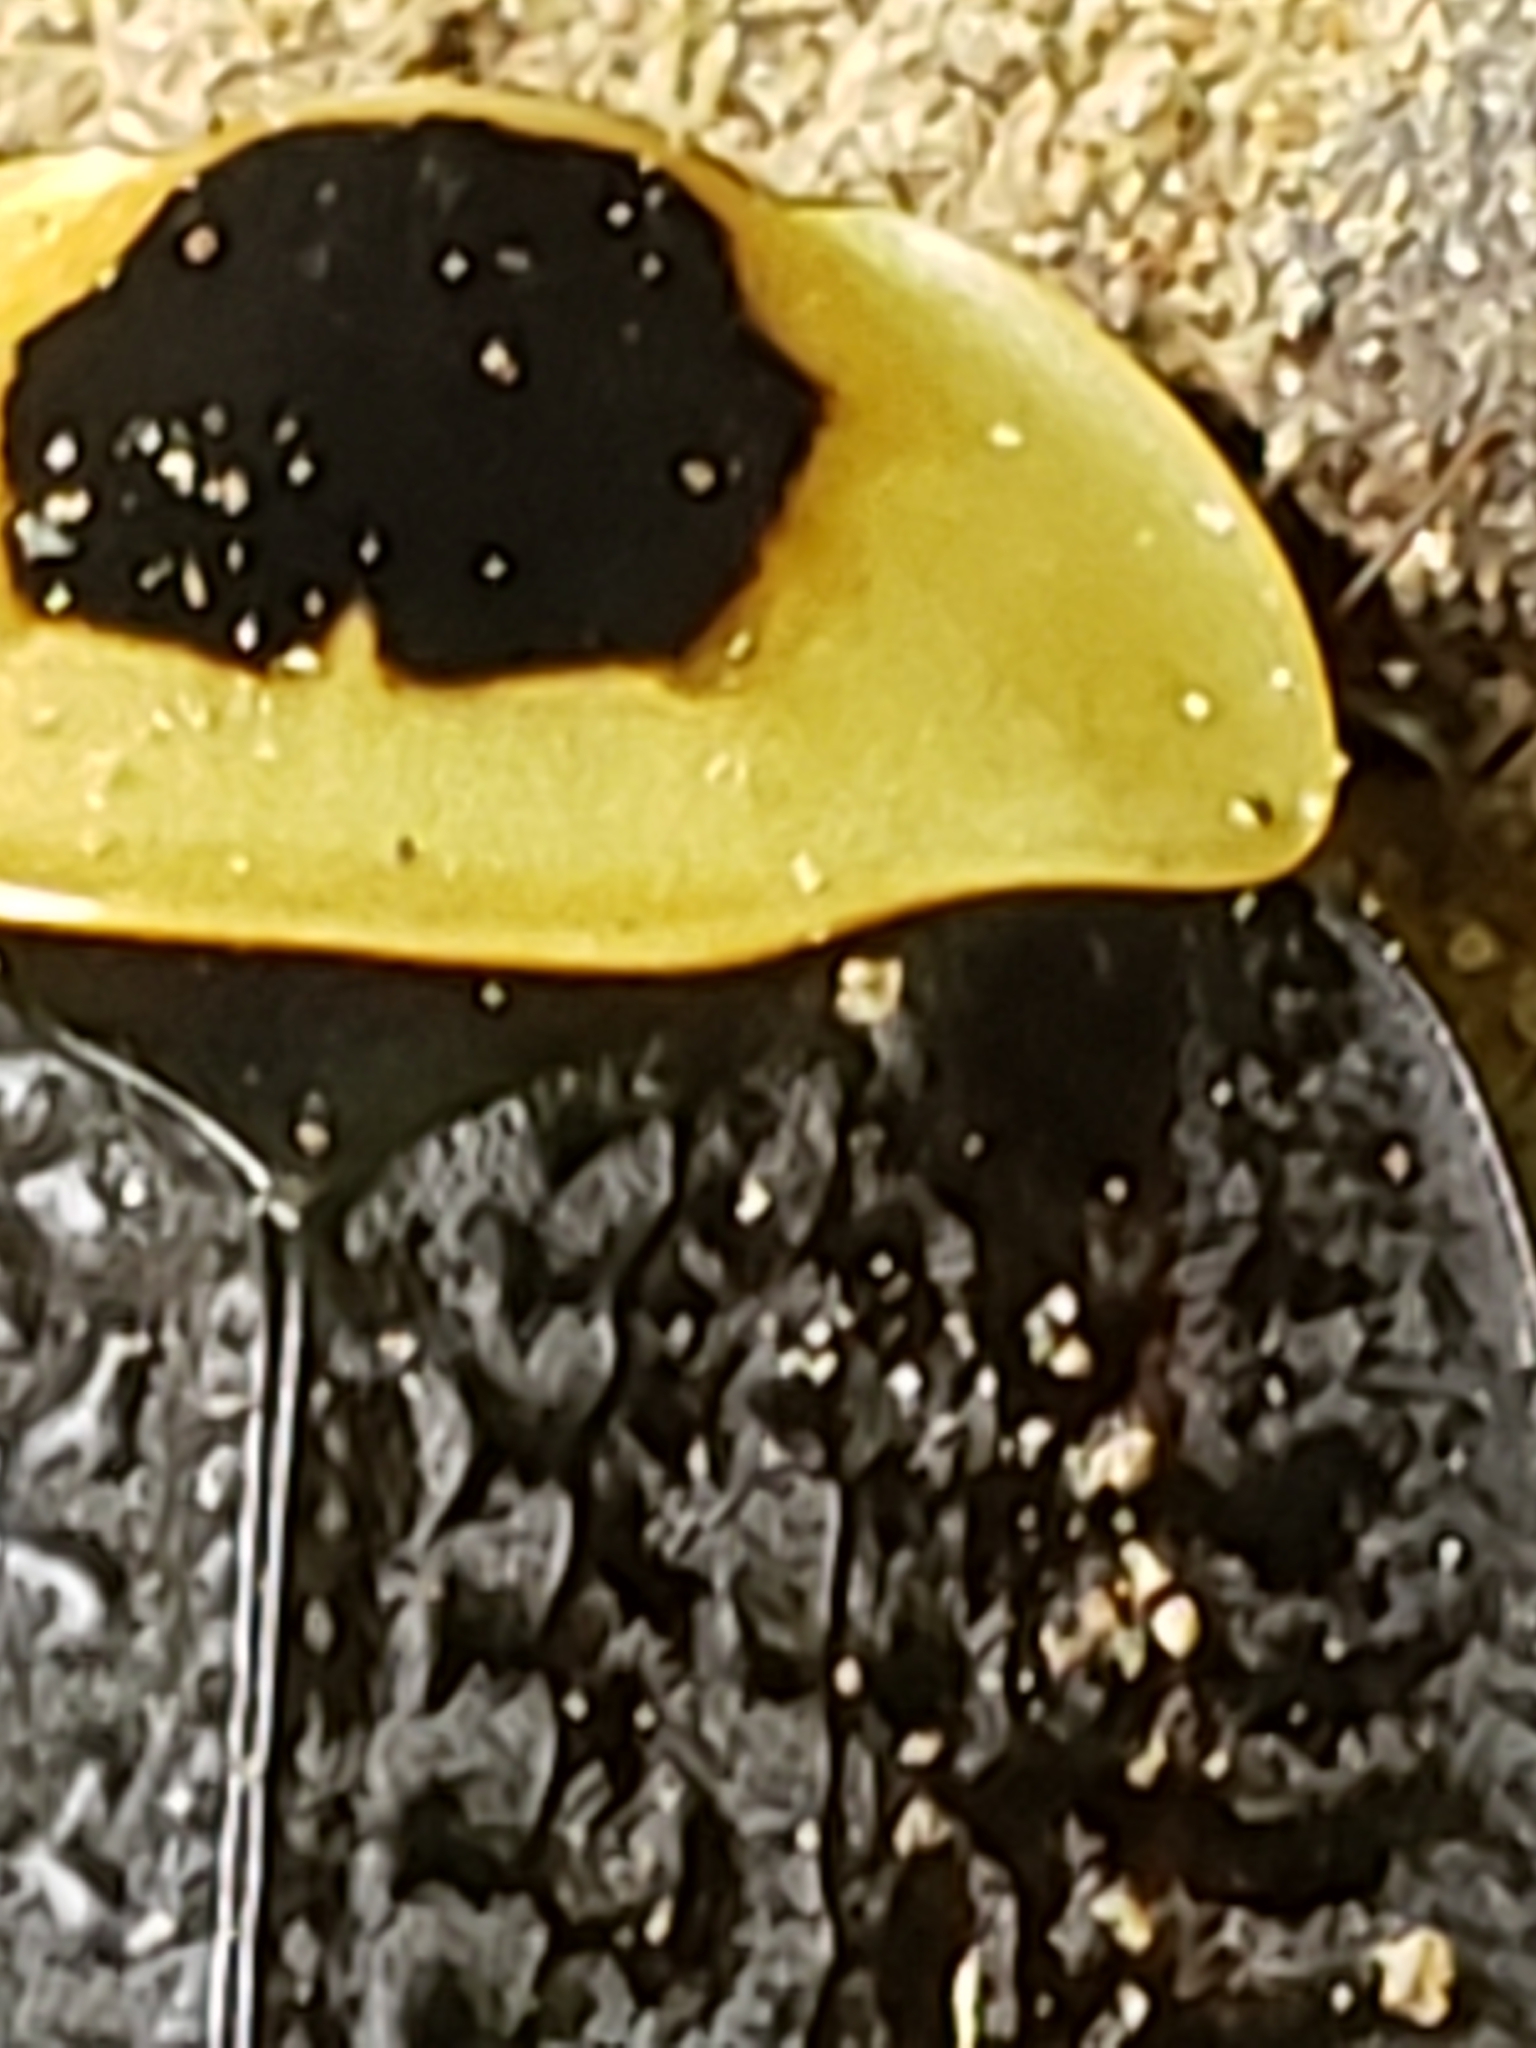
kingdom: Animalia
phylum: Arthropoda
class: Insecta
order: Coleoptera
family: Staphylinidae
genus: Necrophila
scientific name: Necrophila americana
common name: American carrion beetle
